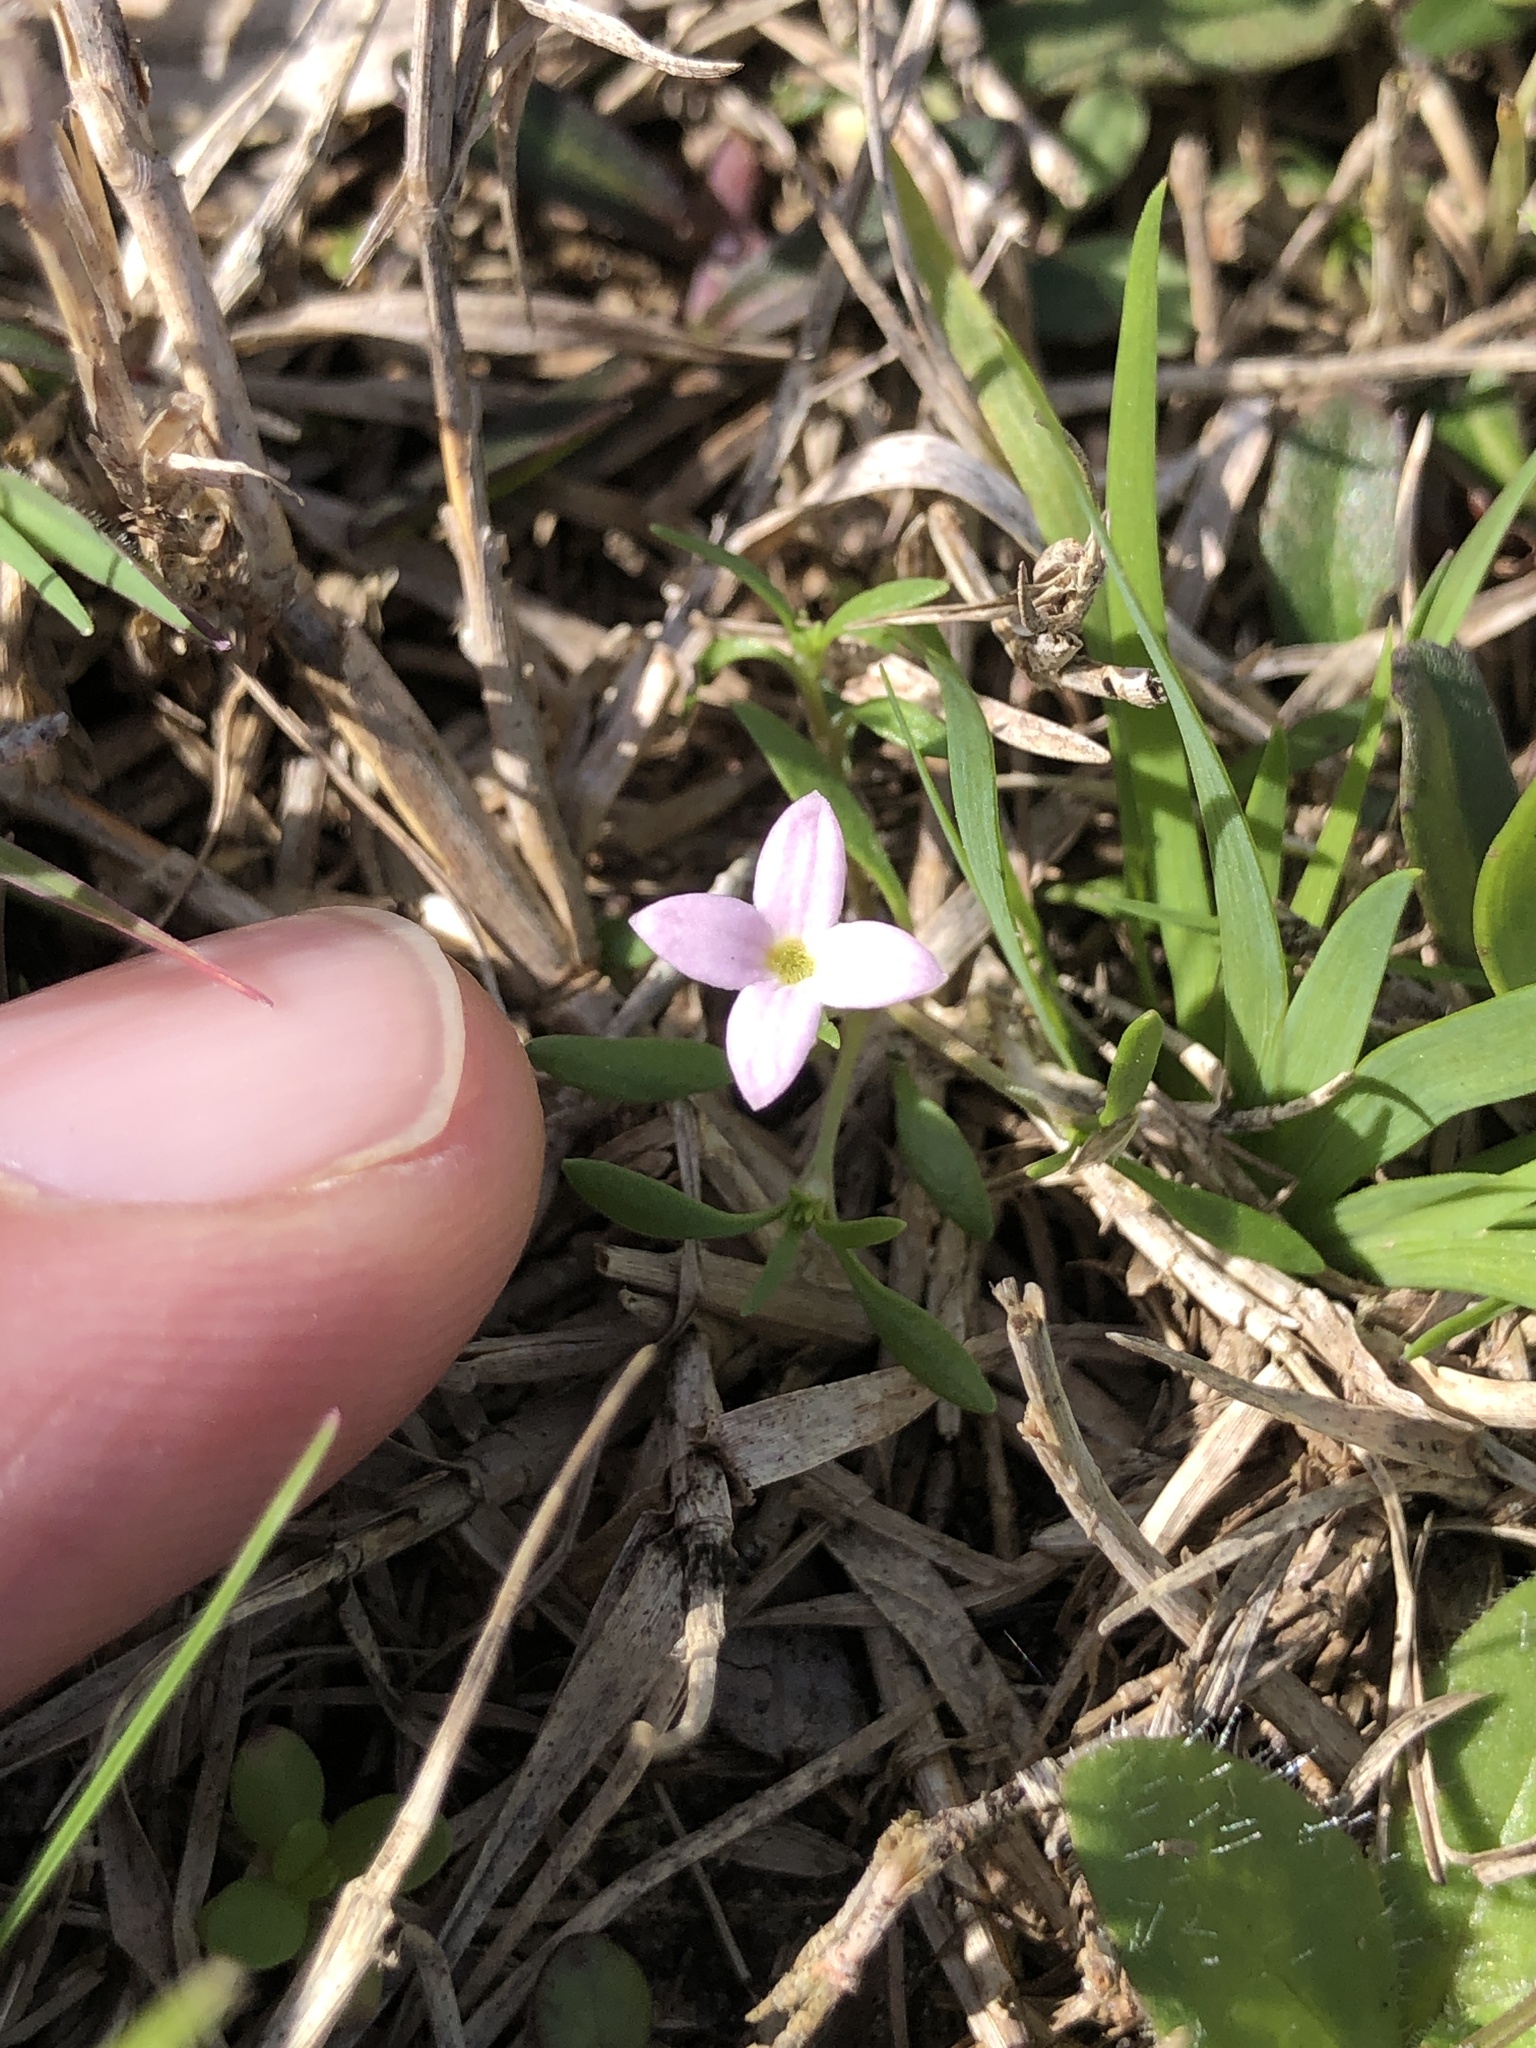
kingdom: Plantae
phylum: Tracheophyta
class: Magnoliopsida
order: Gentianales
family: Rubiaceae
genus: Houstonia
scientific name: Houstonia rosea
